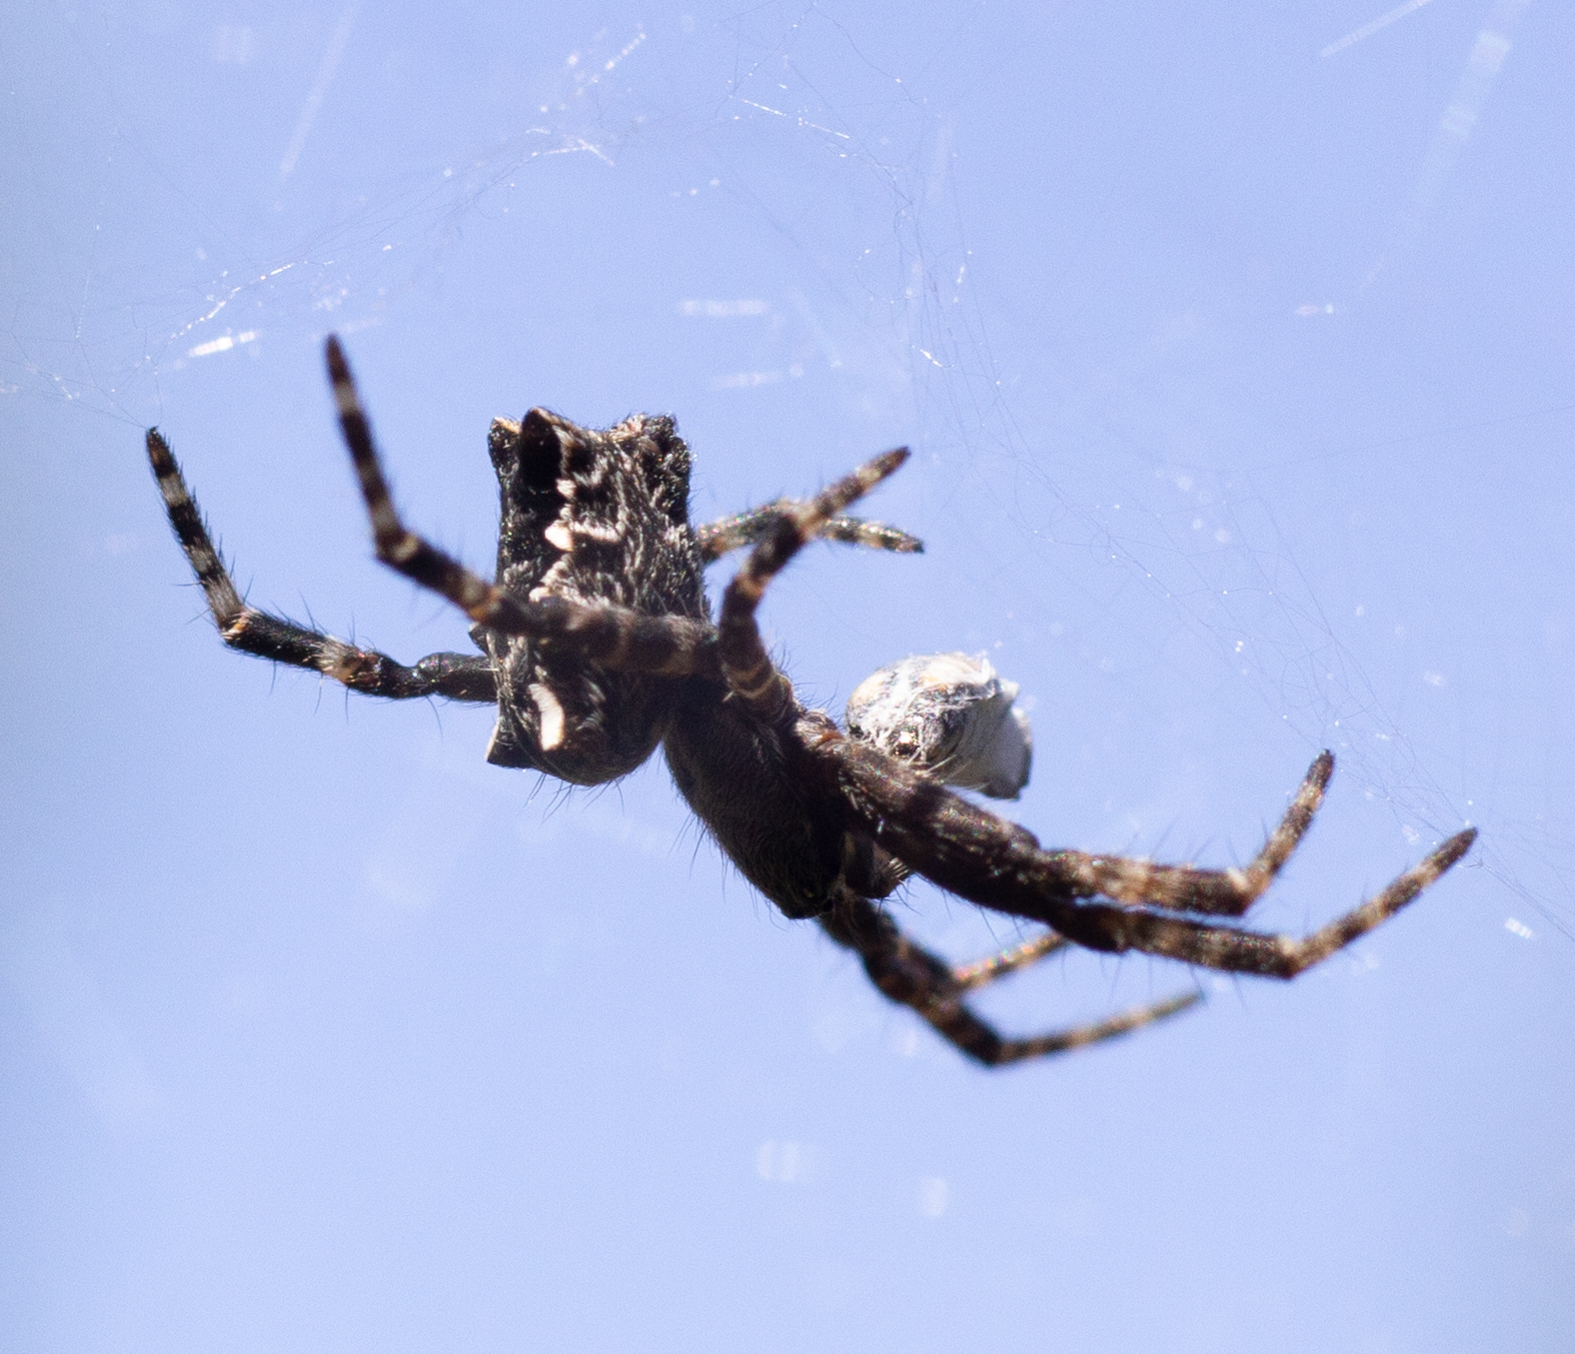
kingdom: Animalia
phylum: Arthropoda
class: Arachnida
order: Araneae
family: Araneidae
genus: Cyrtophora
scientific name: Cyrtophora citricola
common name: Orb weavers
